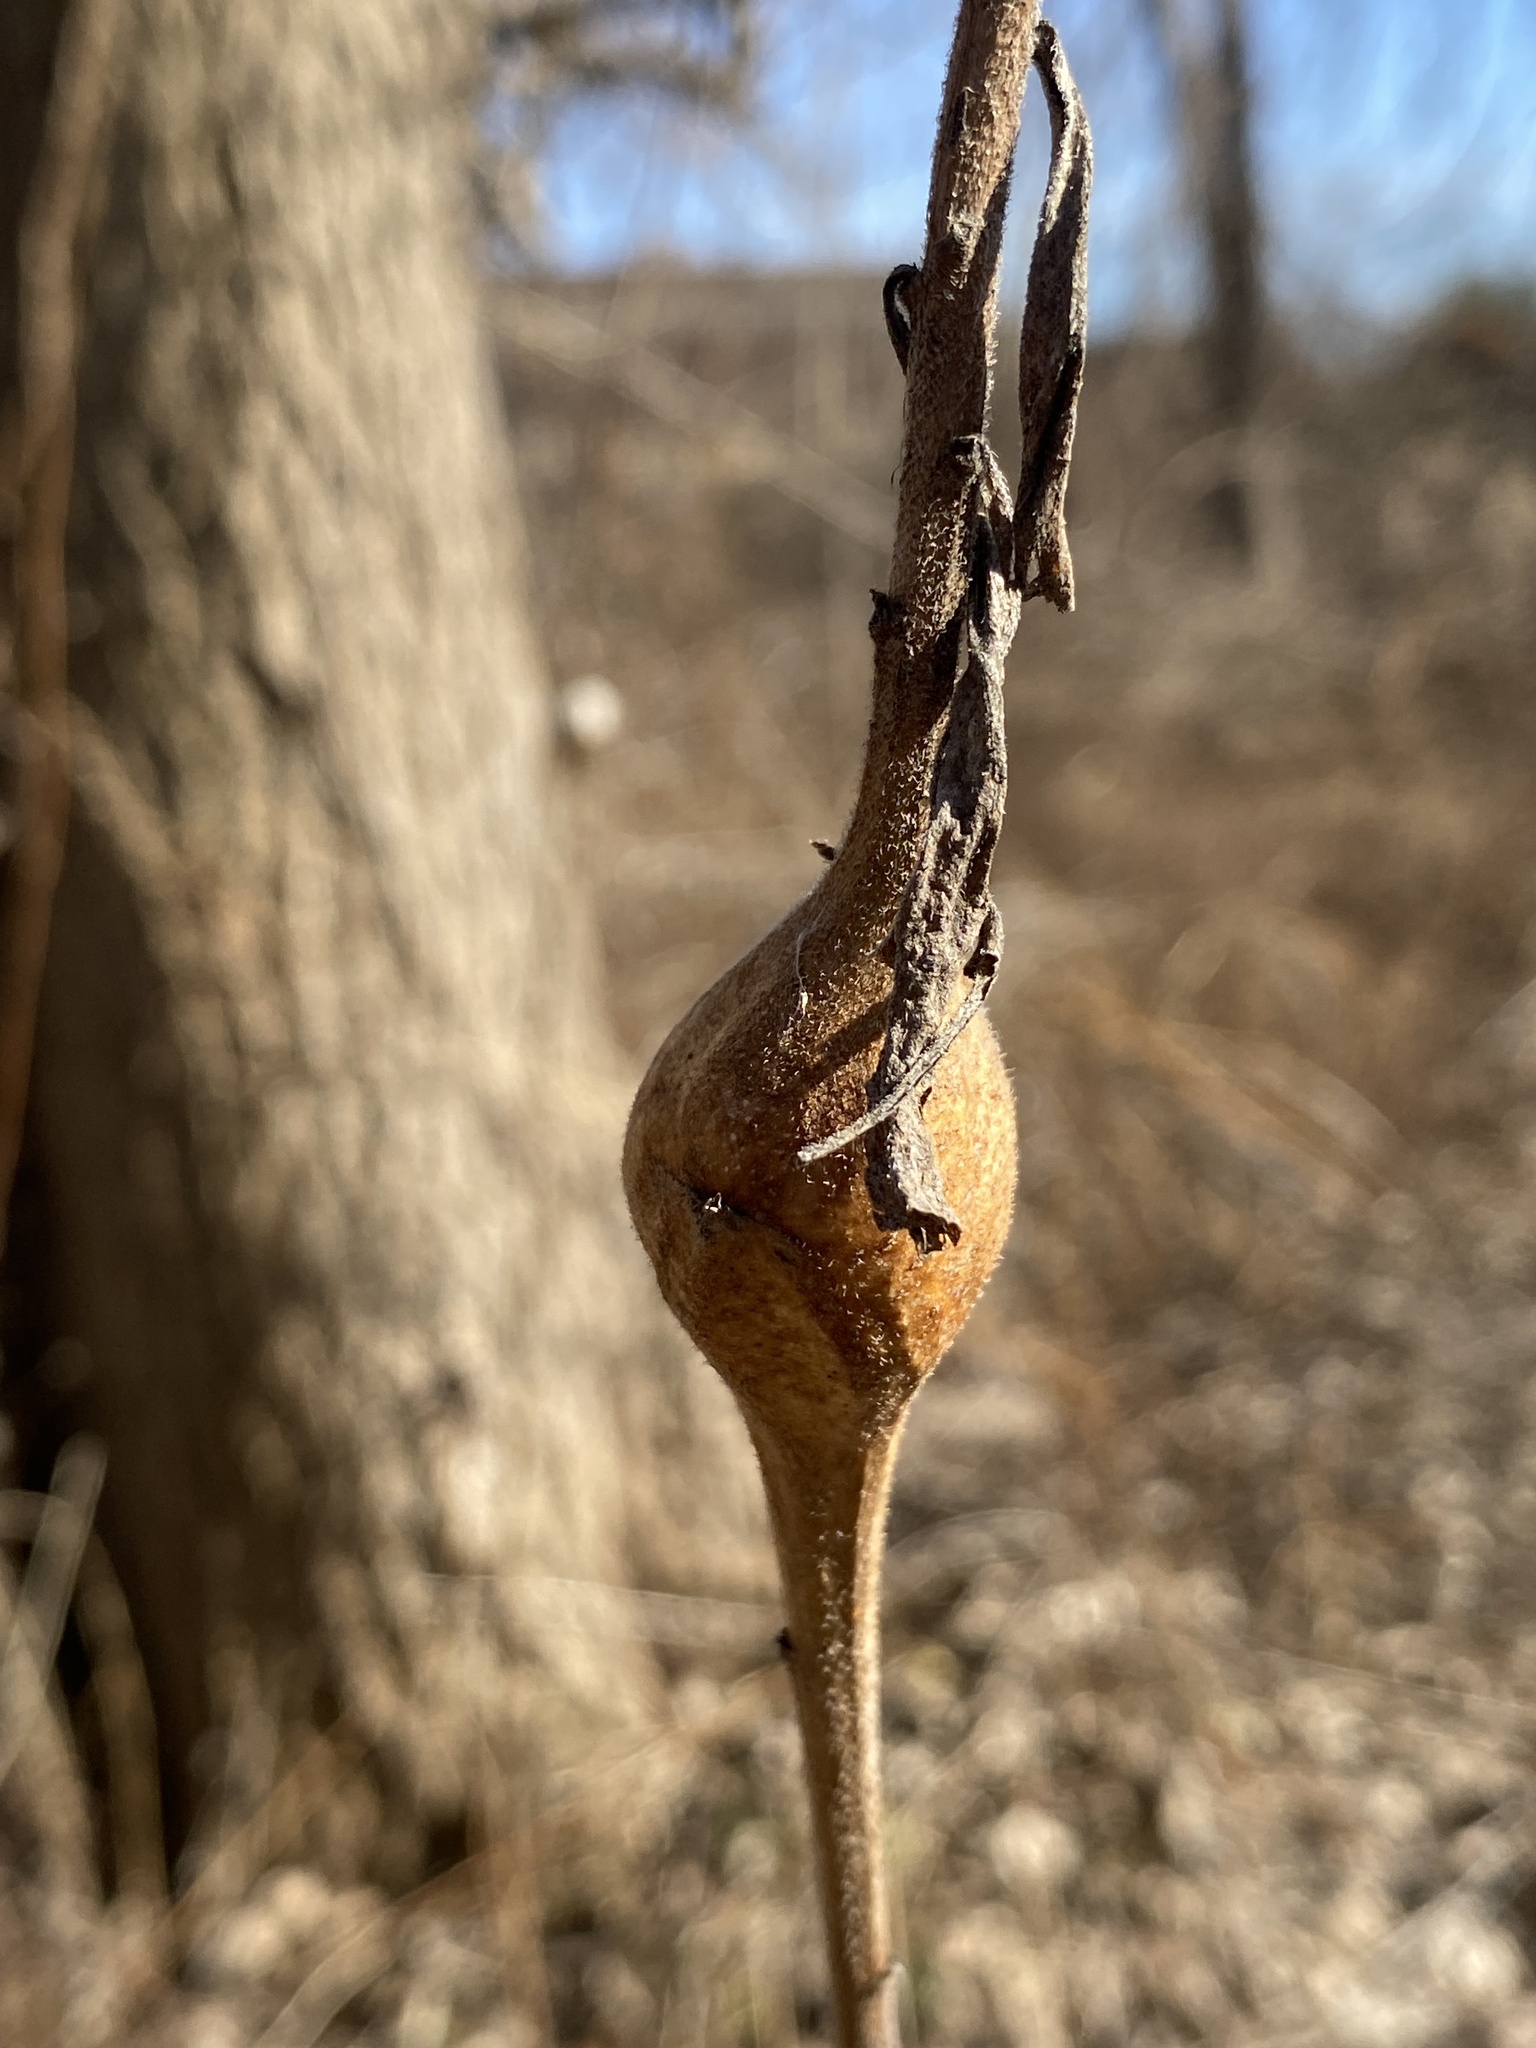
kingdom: Animalia
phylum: Arthropoda
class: Insecta
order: Diptera
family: Tephritidae
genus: Eurosta
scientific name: Eurosta solidaginis
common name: Goldenrod gall fly
